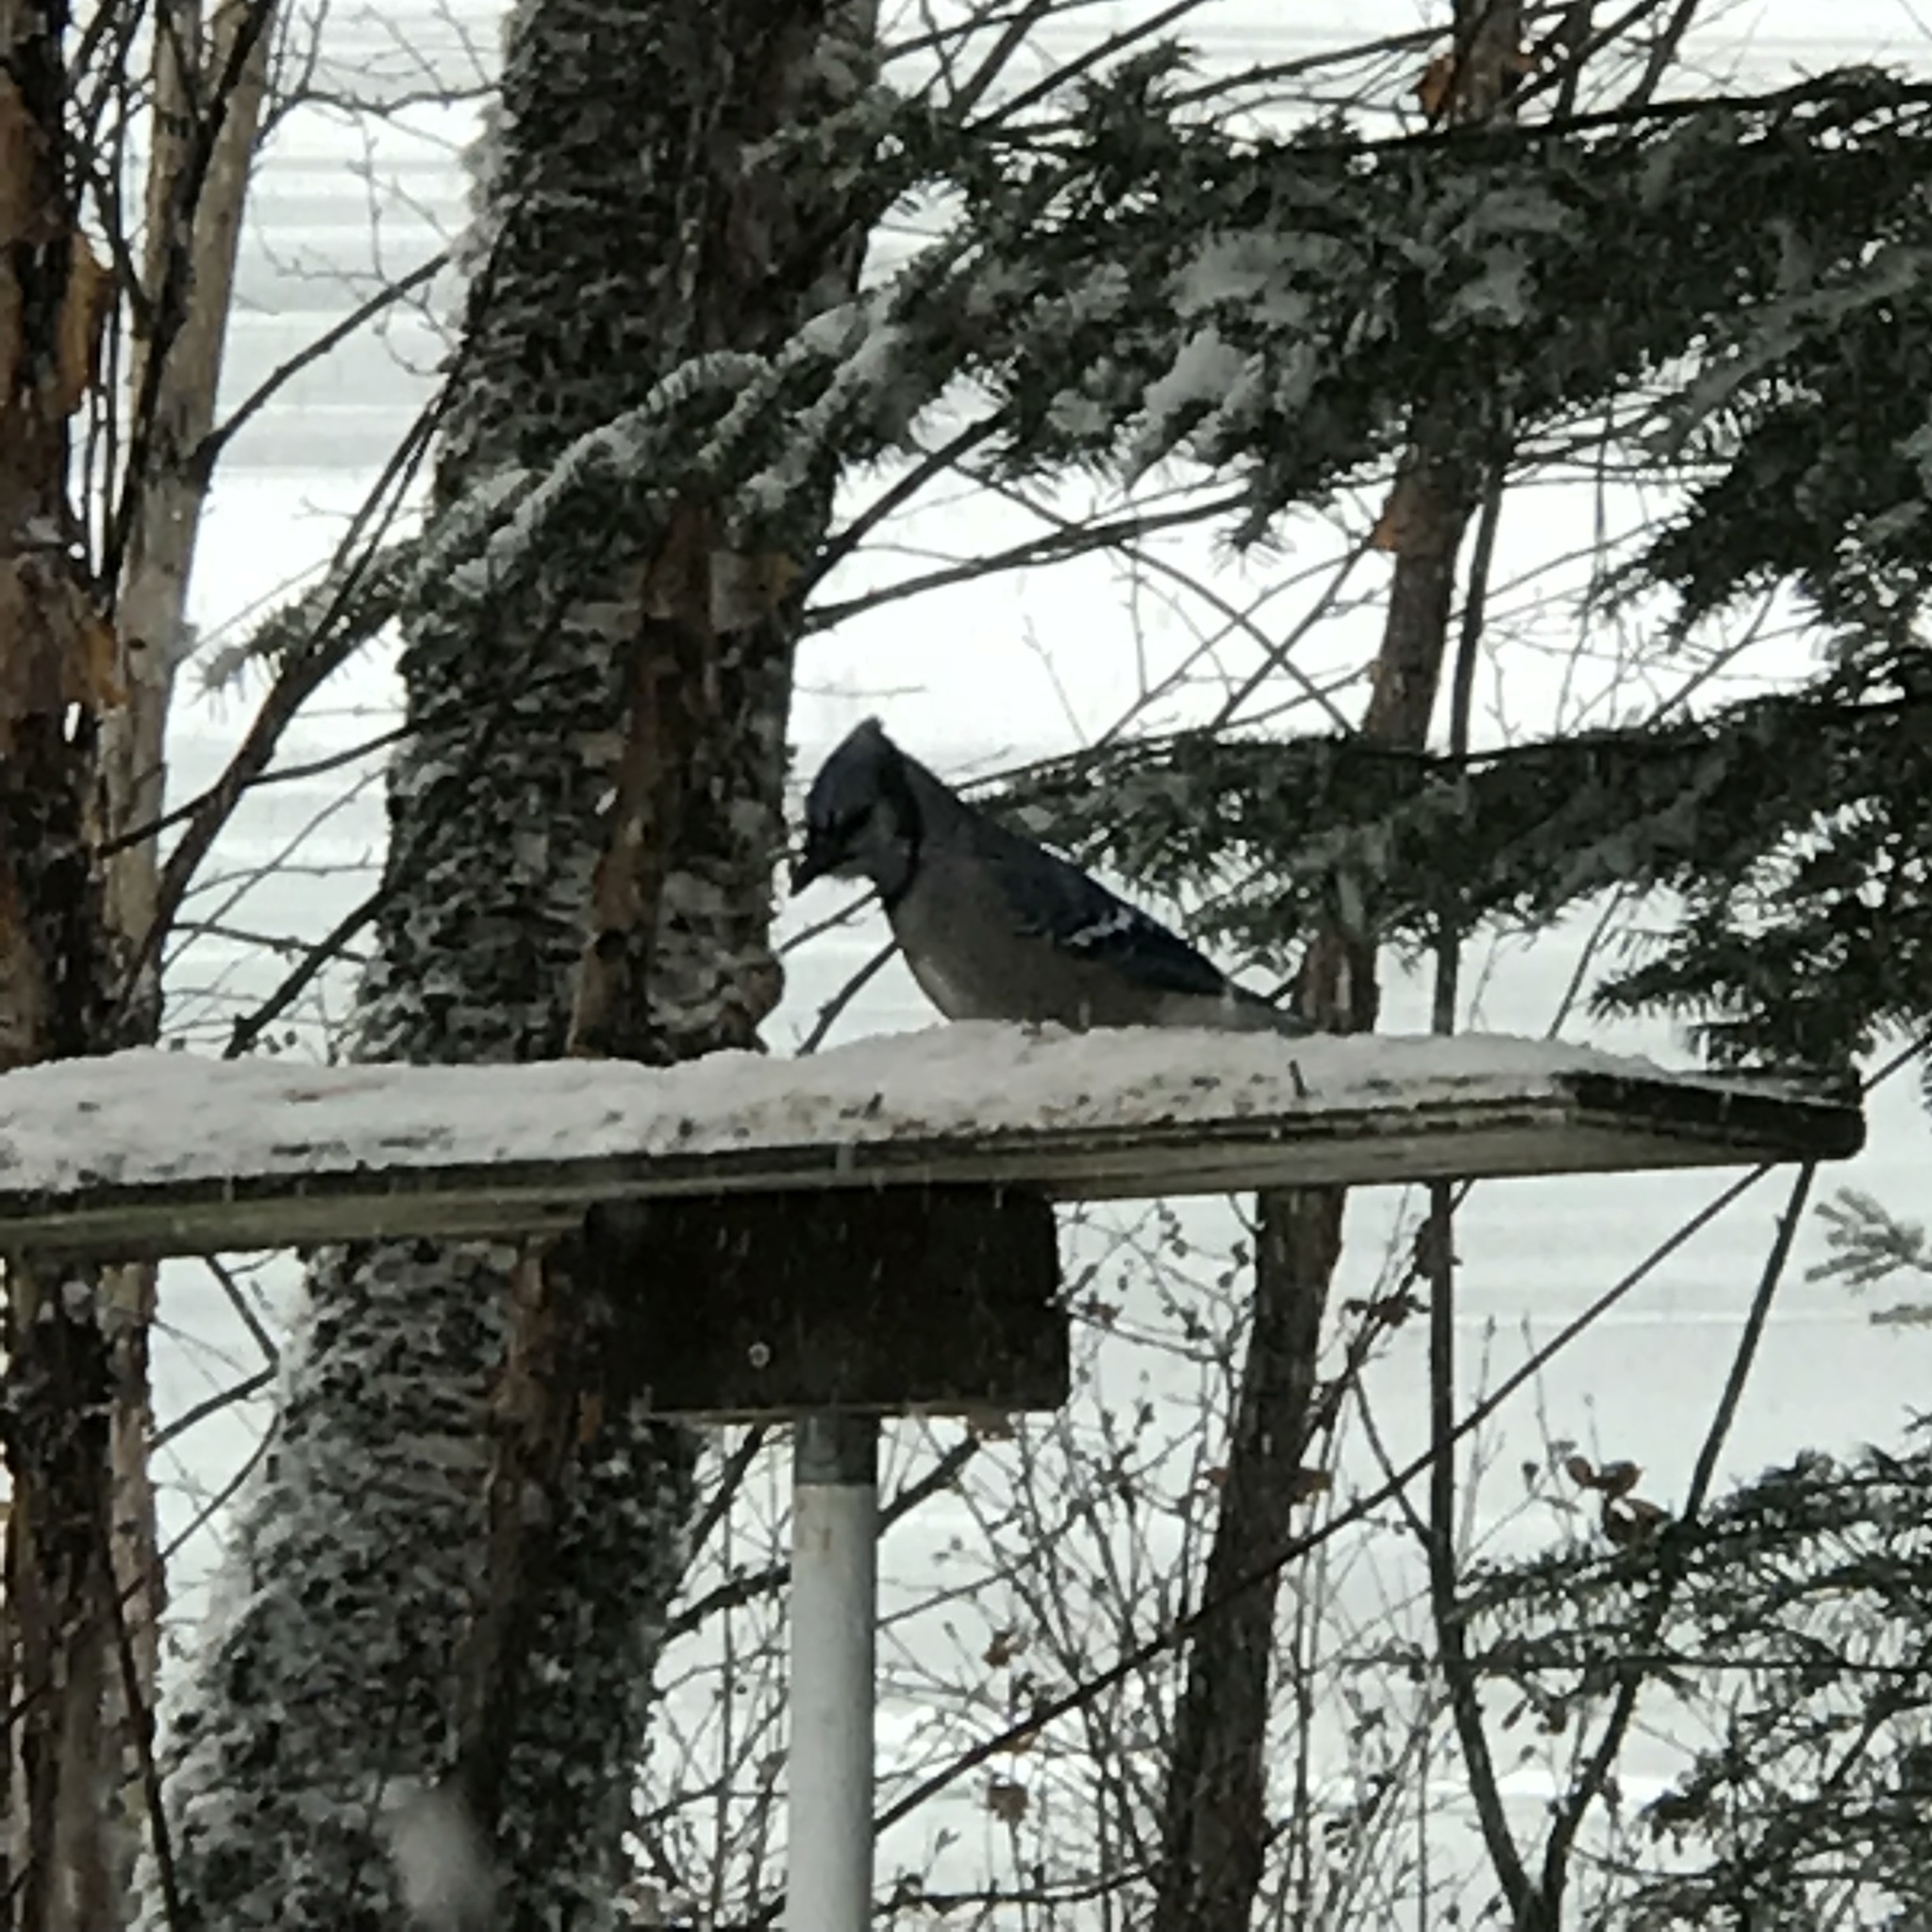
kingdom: Animalia
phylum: Chordata
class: Aves
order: Passeriformes
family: Corvidae
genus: Cyanocitta
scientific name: Cyanocitta cristata
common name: Blue jay
